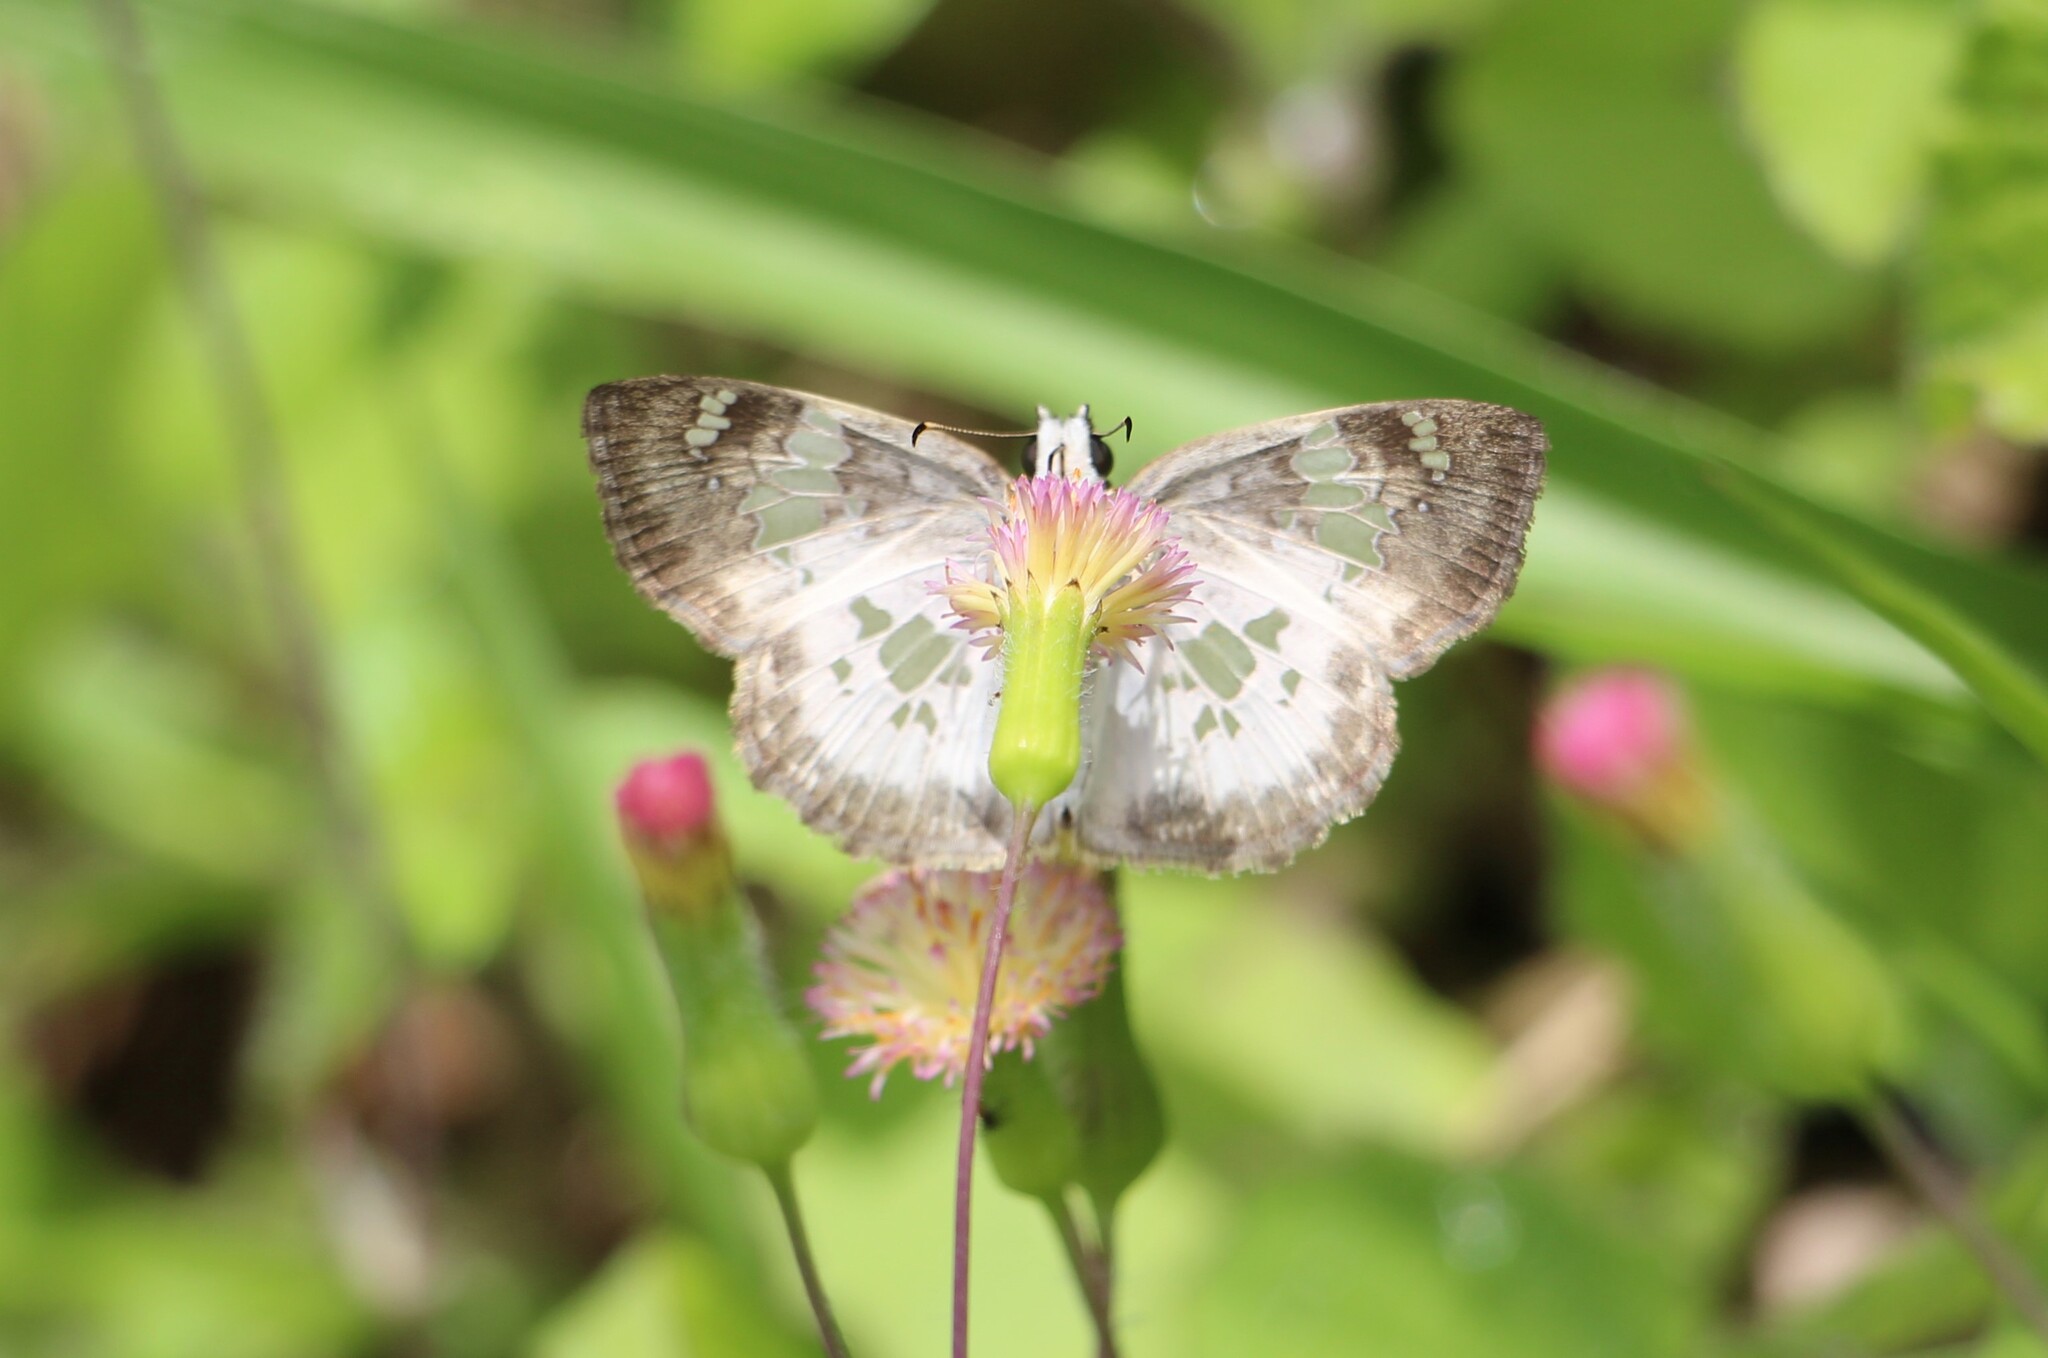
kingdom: Animalia
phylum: Arthropoda
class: Insecta
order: Lepidoptera
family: Hesperiidae
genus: Xenophanes
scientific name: Xenophanes tryxus
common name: Glassy-winged skipper
